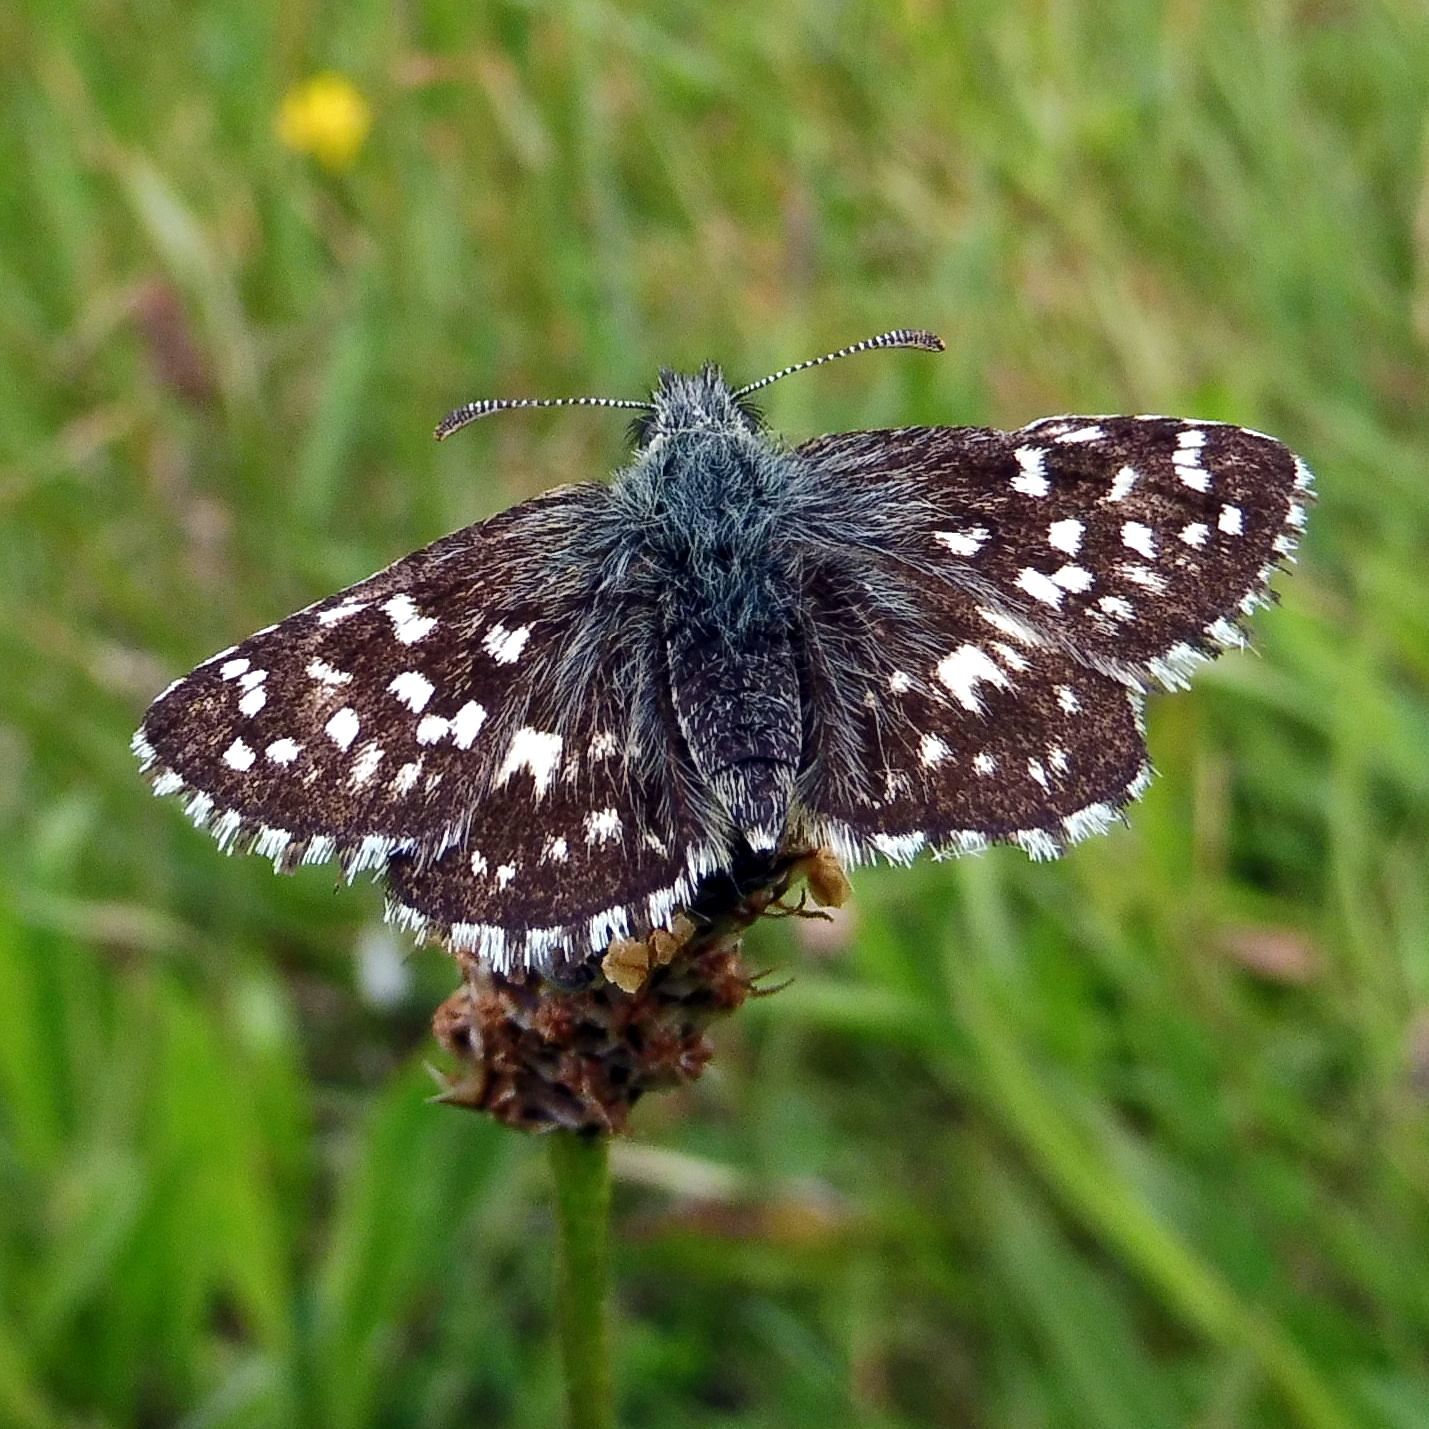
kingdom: Animalia
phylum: Arthropoda
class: Insecta
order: Lepidoptera
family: Hesperiidae
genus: Pyrgus
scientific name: Pyrgus malvae
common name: Grizzled skipper
